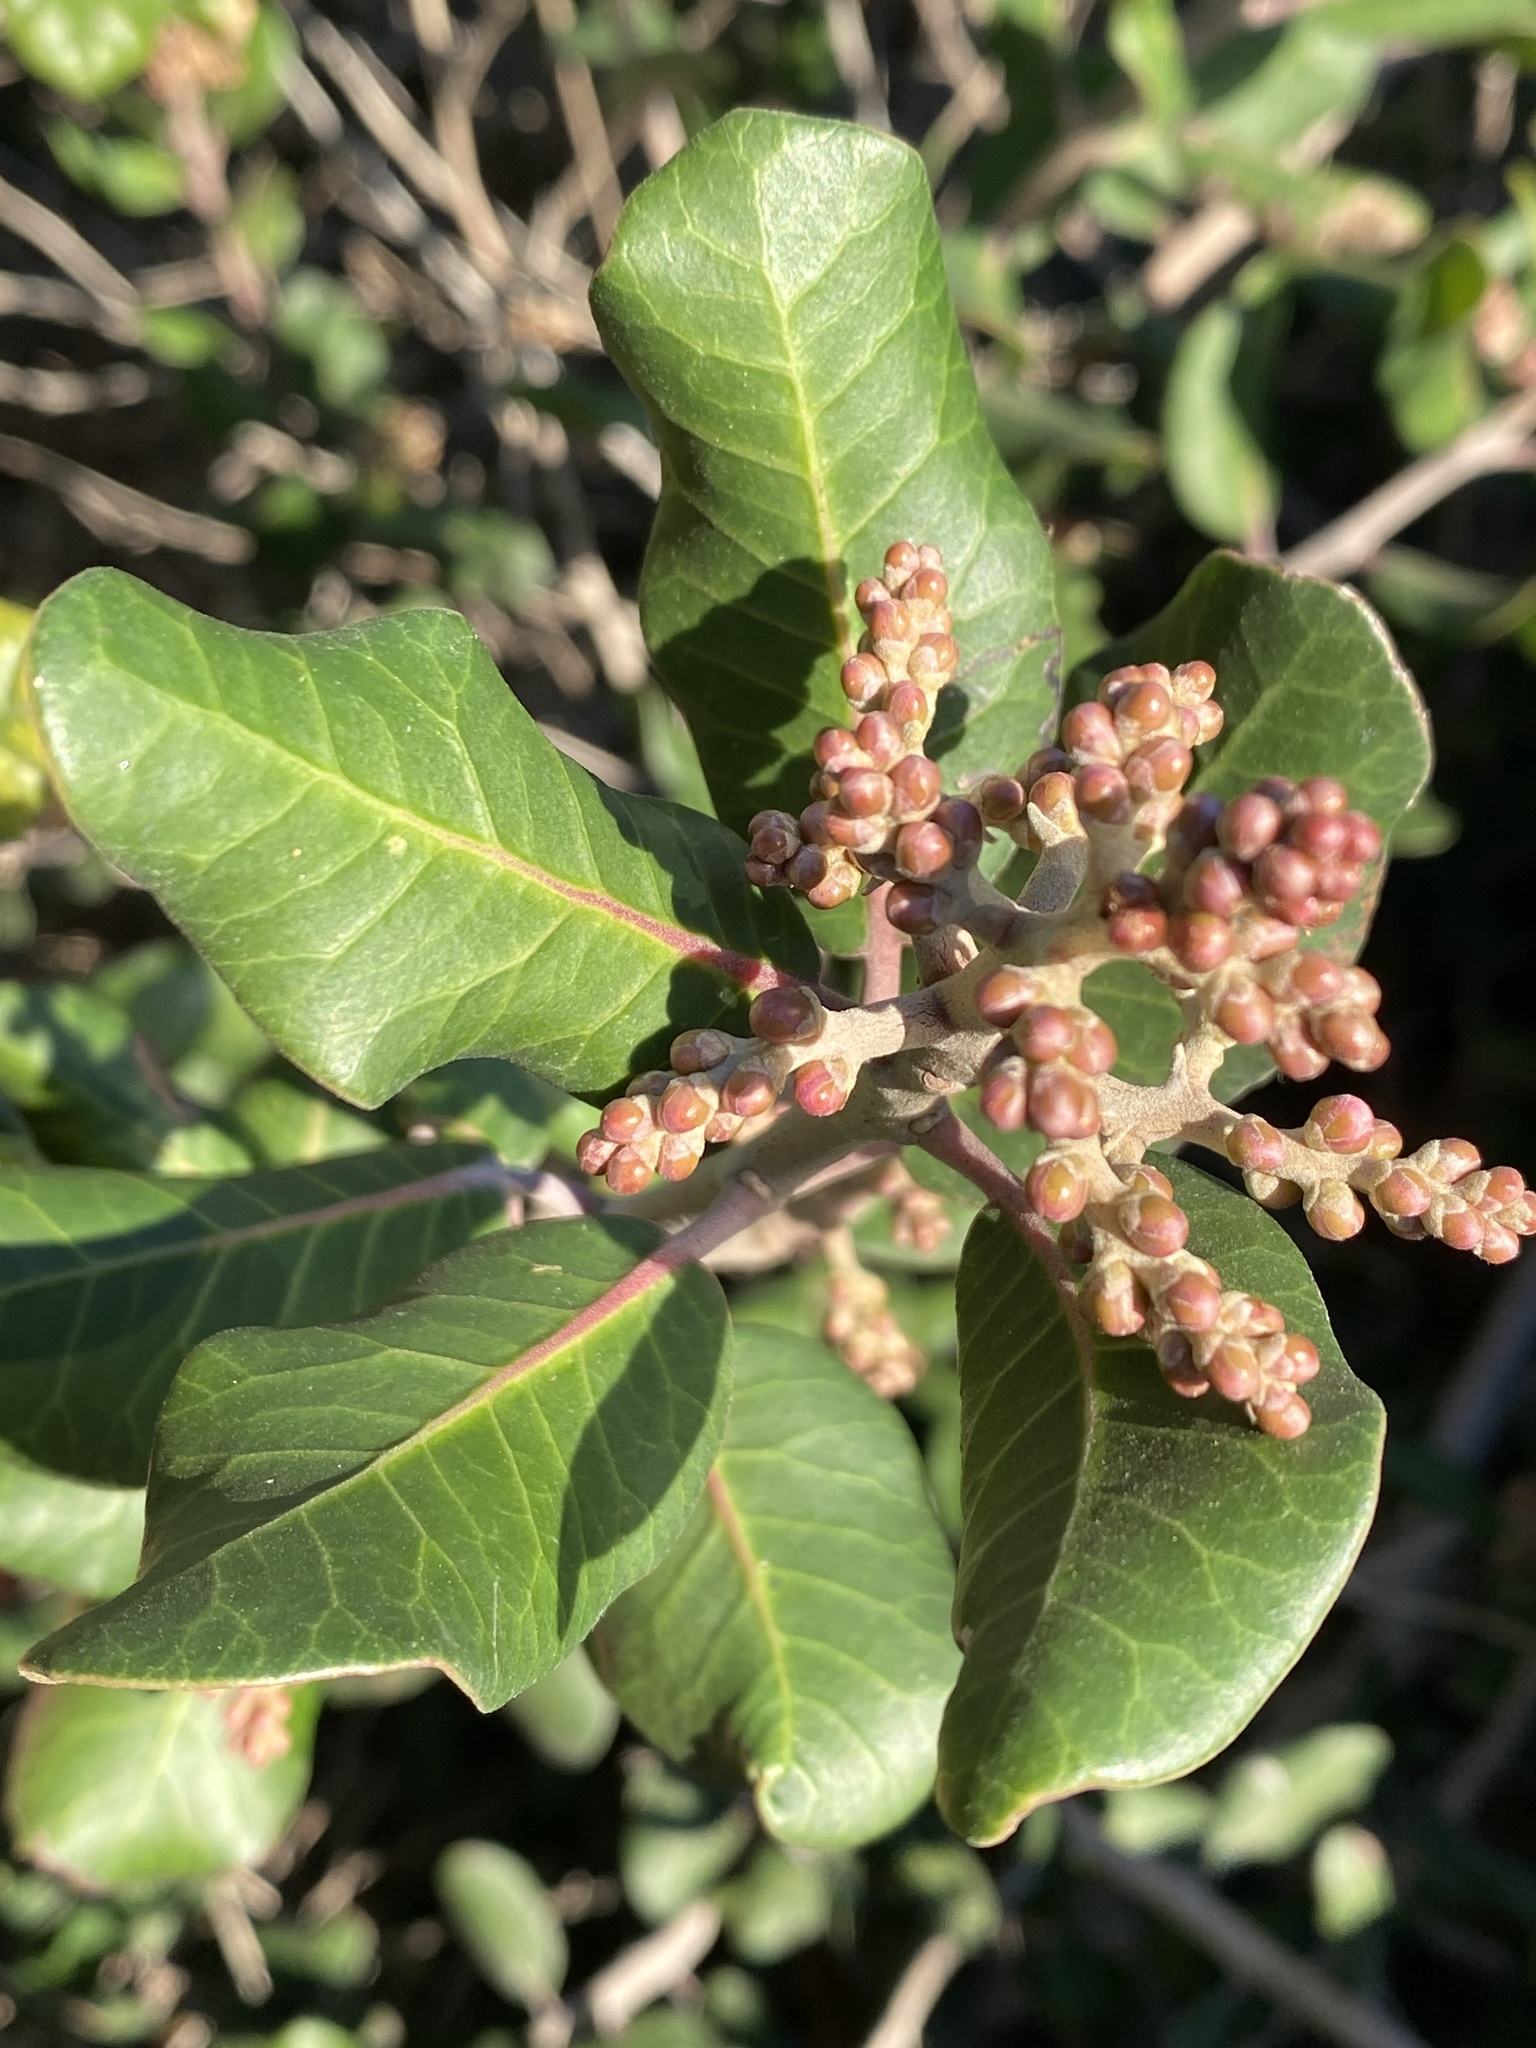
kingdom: Plantae
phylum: Tracheophyta
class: Magnoliopsida
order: Sapindales
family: Anacardiaceae
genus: Rhus
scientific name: Rhus integrifolia
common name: Lemonade sumac
